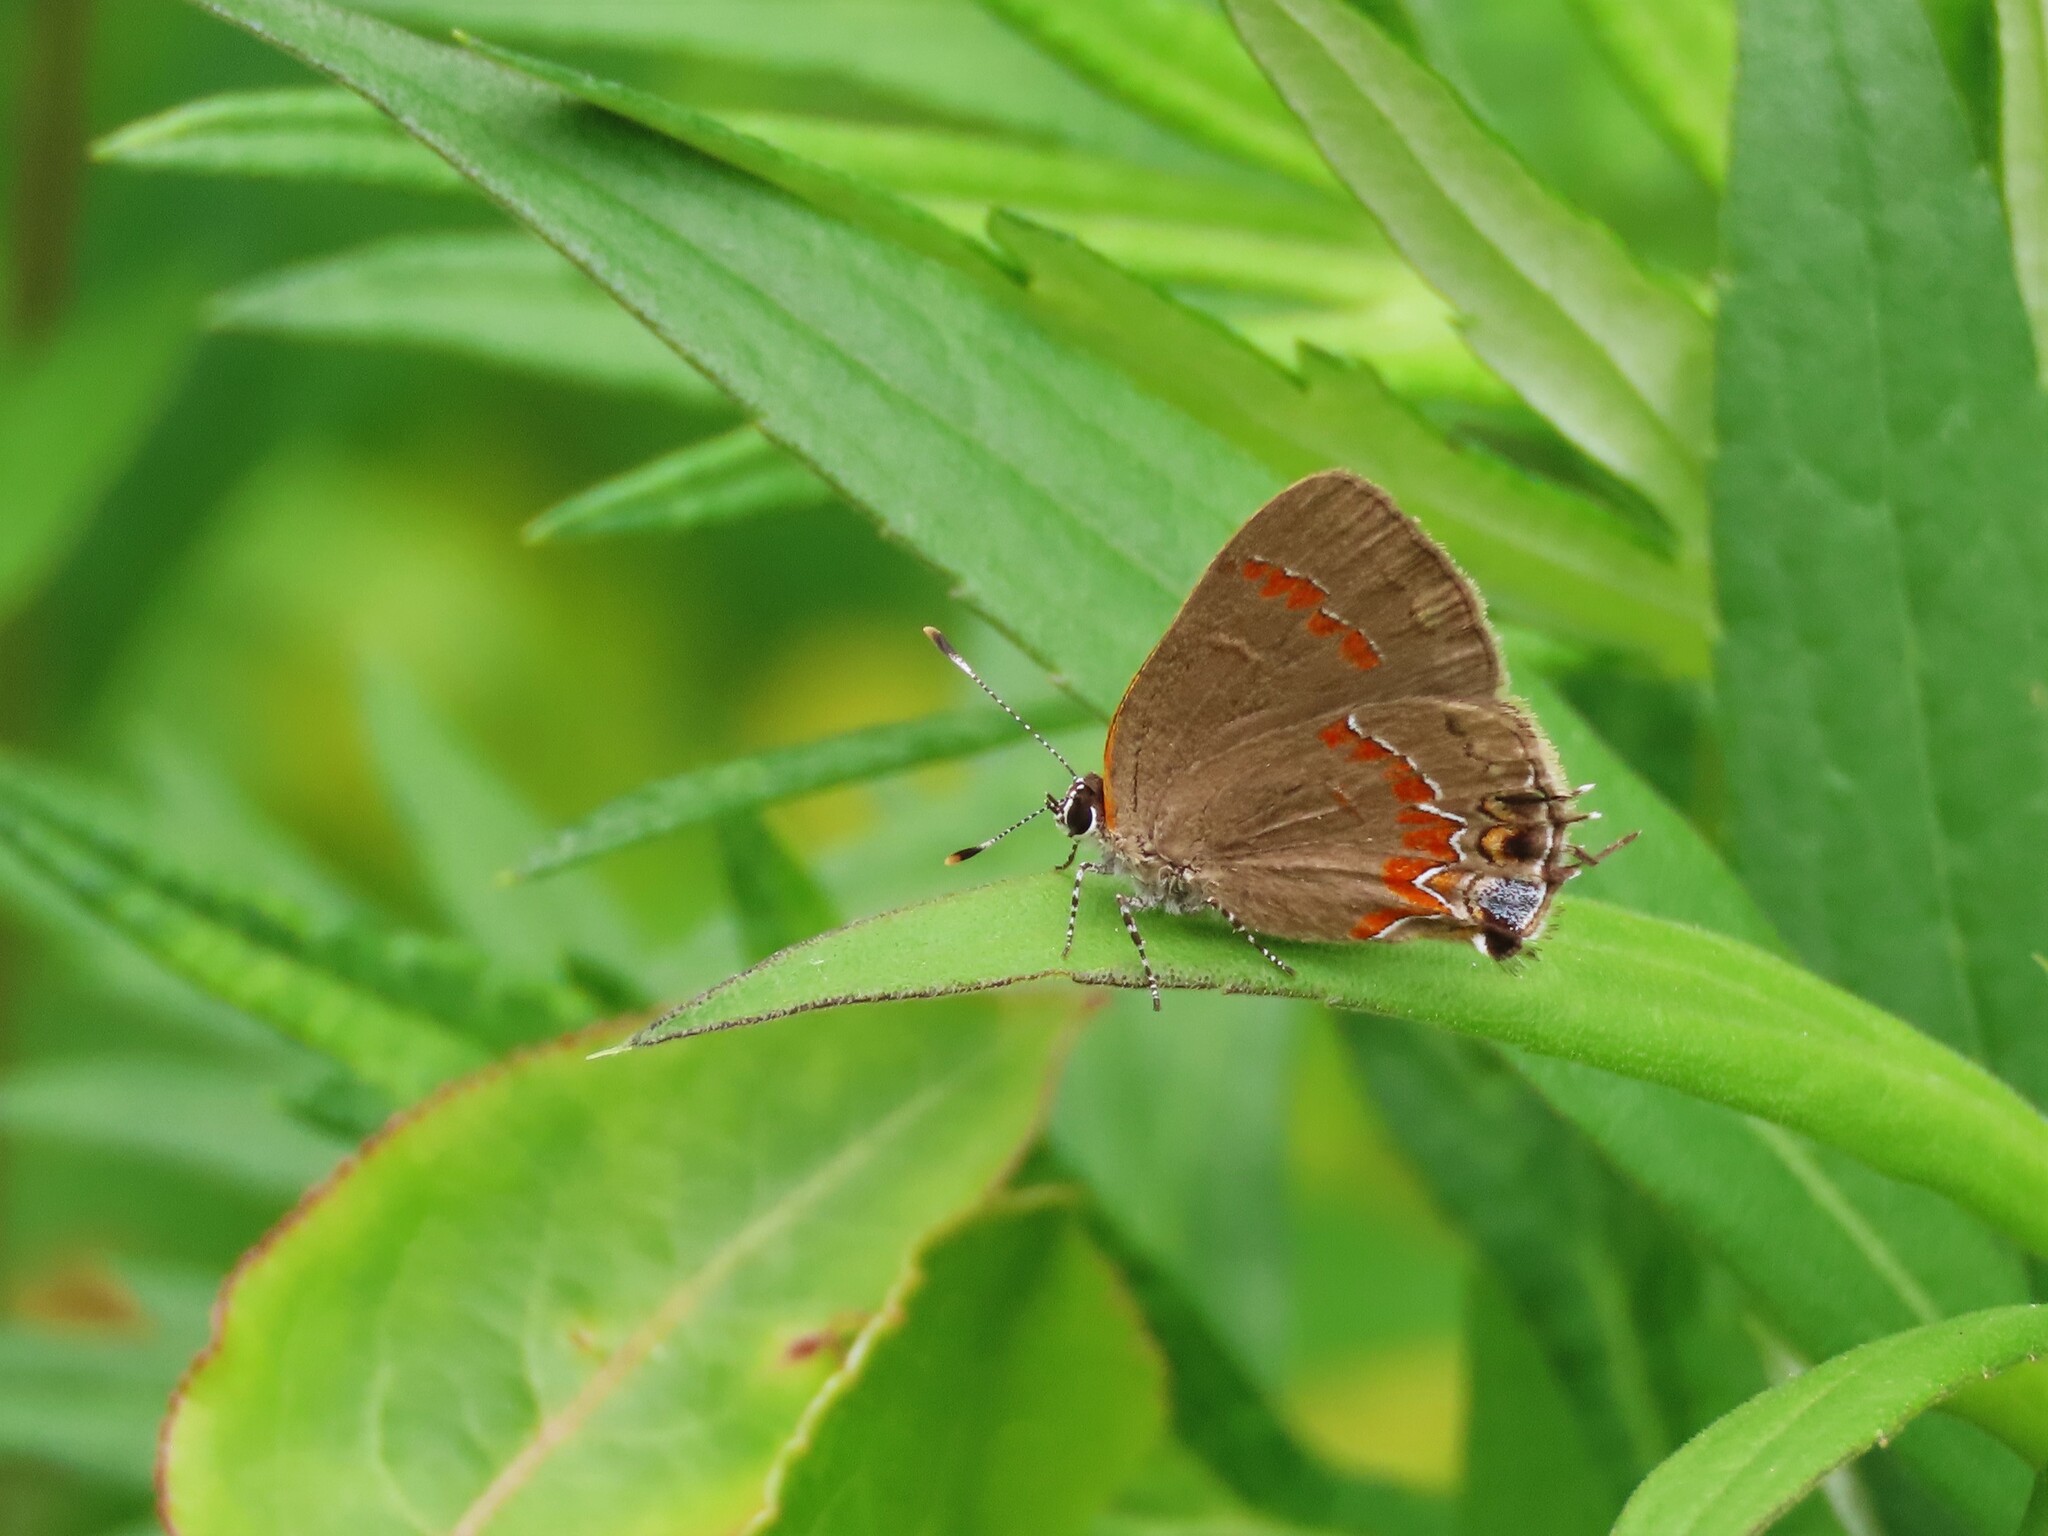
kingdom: Animalia
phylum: Arthropoda
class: Insecta
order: Lepidoptera
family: Lycaenidae
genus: Calycopis
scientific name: Calycopis cecrops
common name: Red-banded hairstreak
